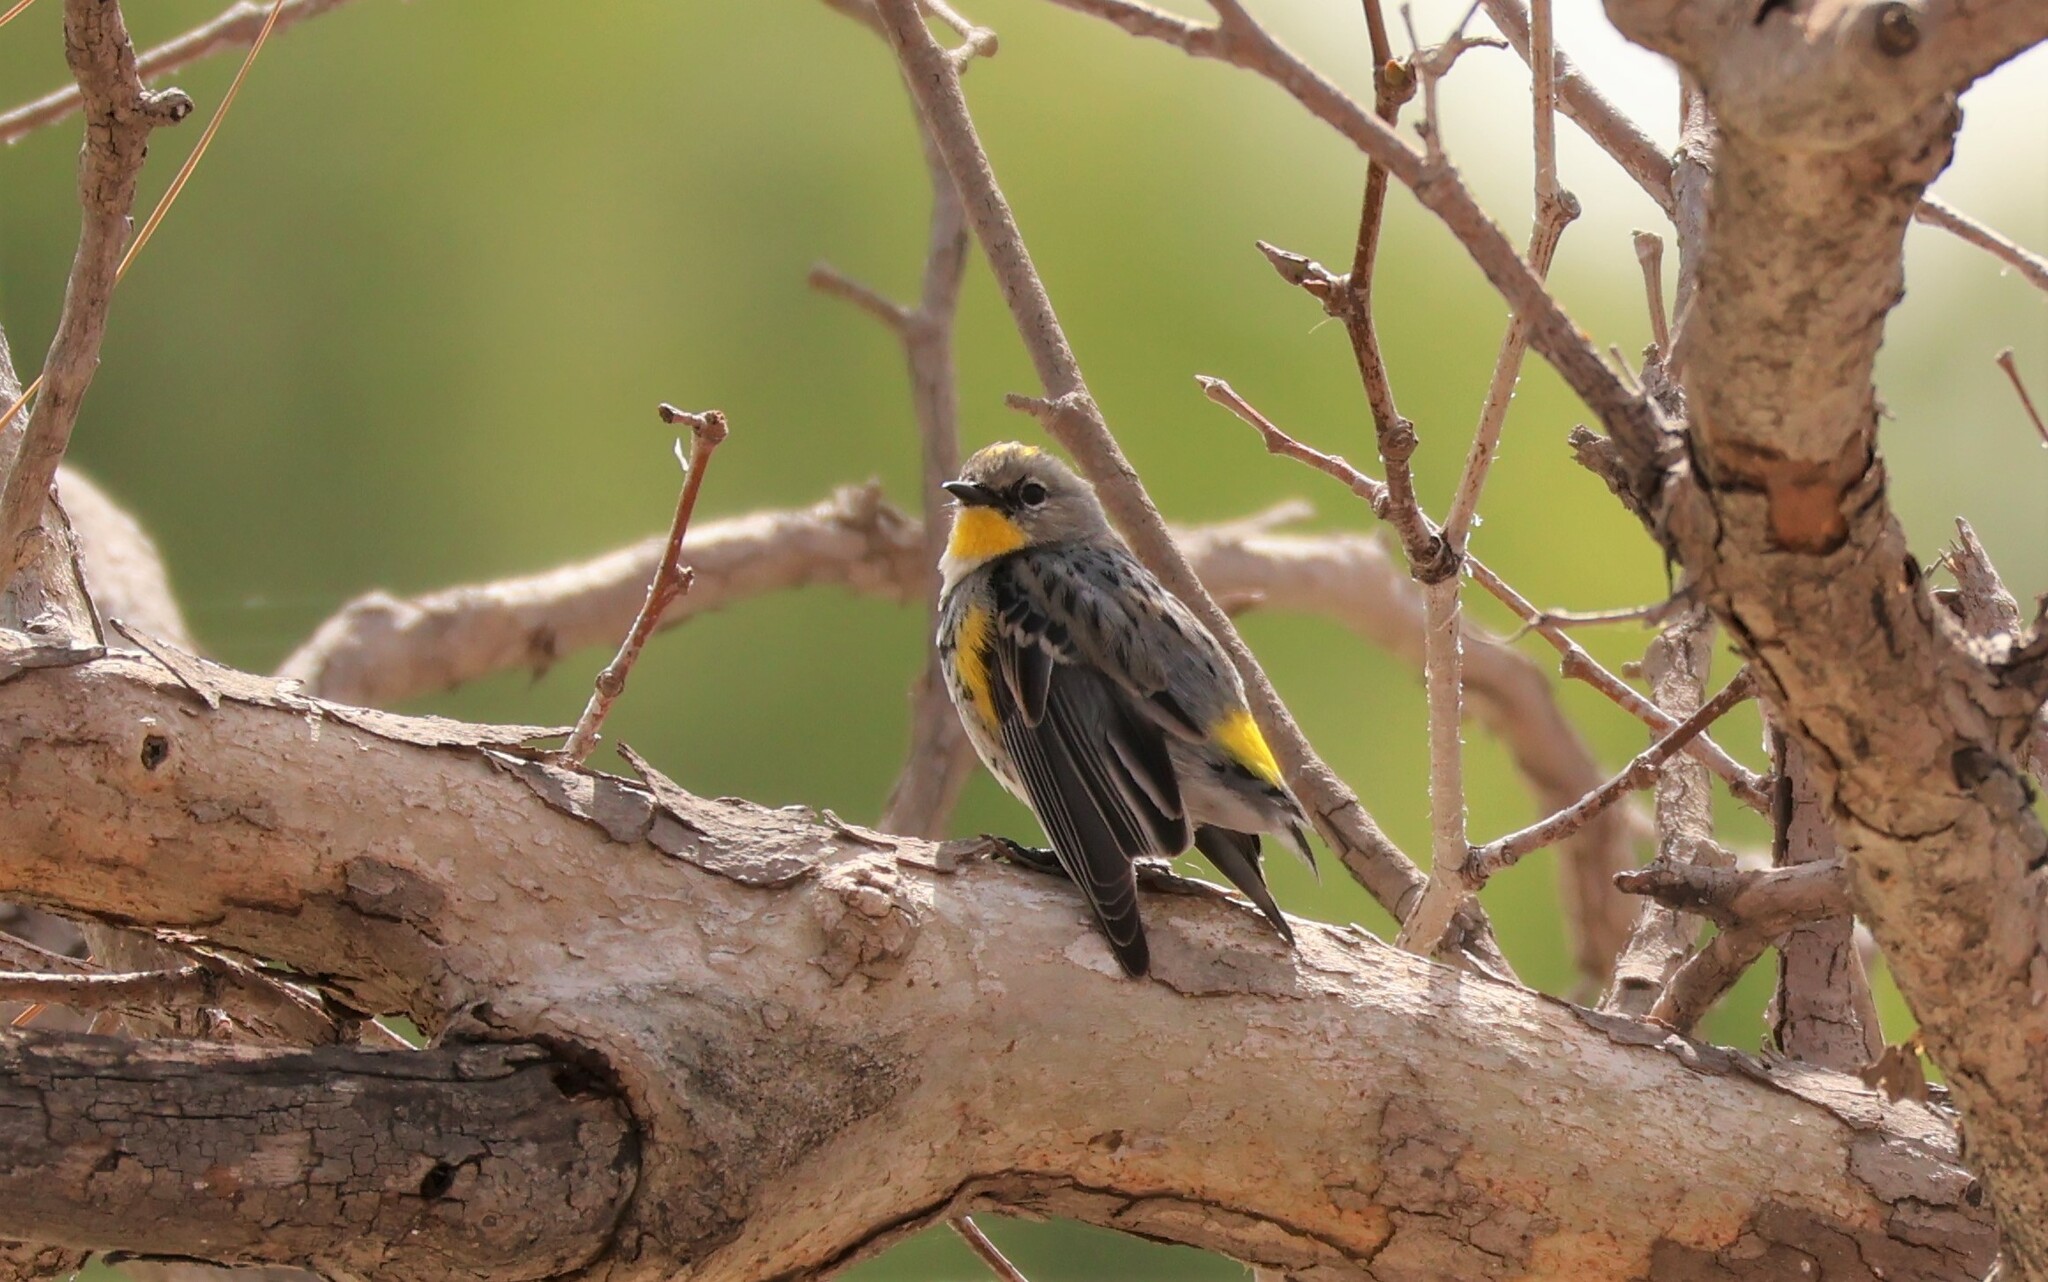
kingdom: Animalia
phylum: Chordata
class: Aves
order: Passeriformes
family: Parulidae
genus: Setophaga
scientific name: Setophaga auduboni
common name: Audubon's warbler
